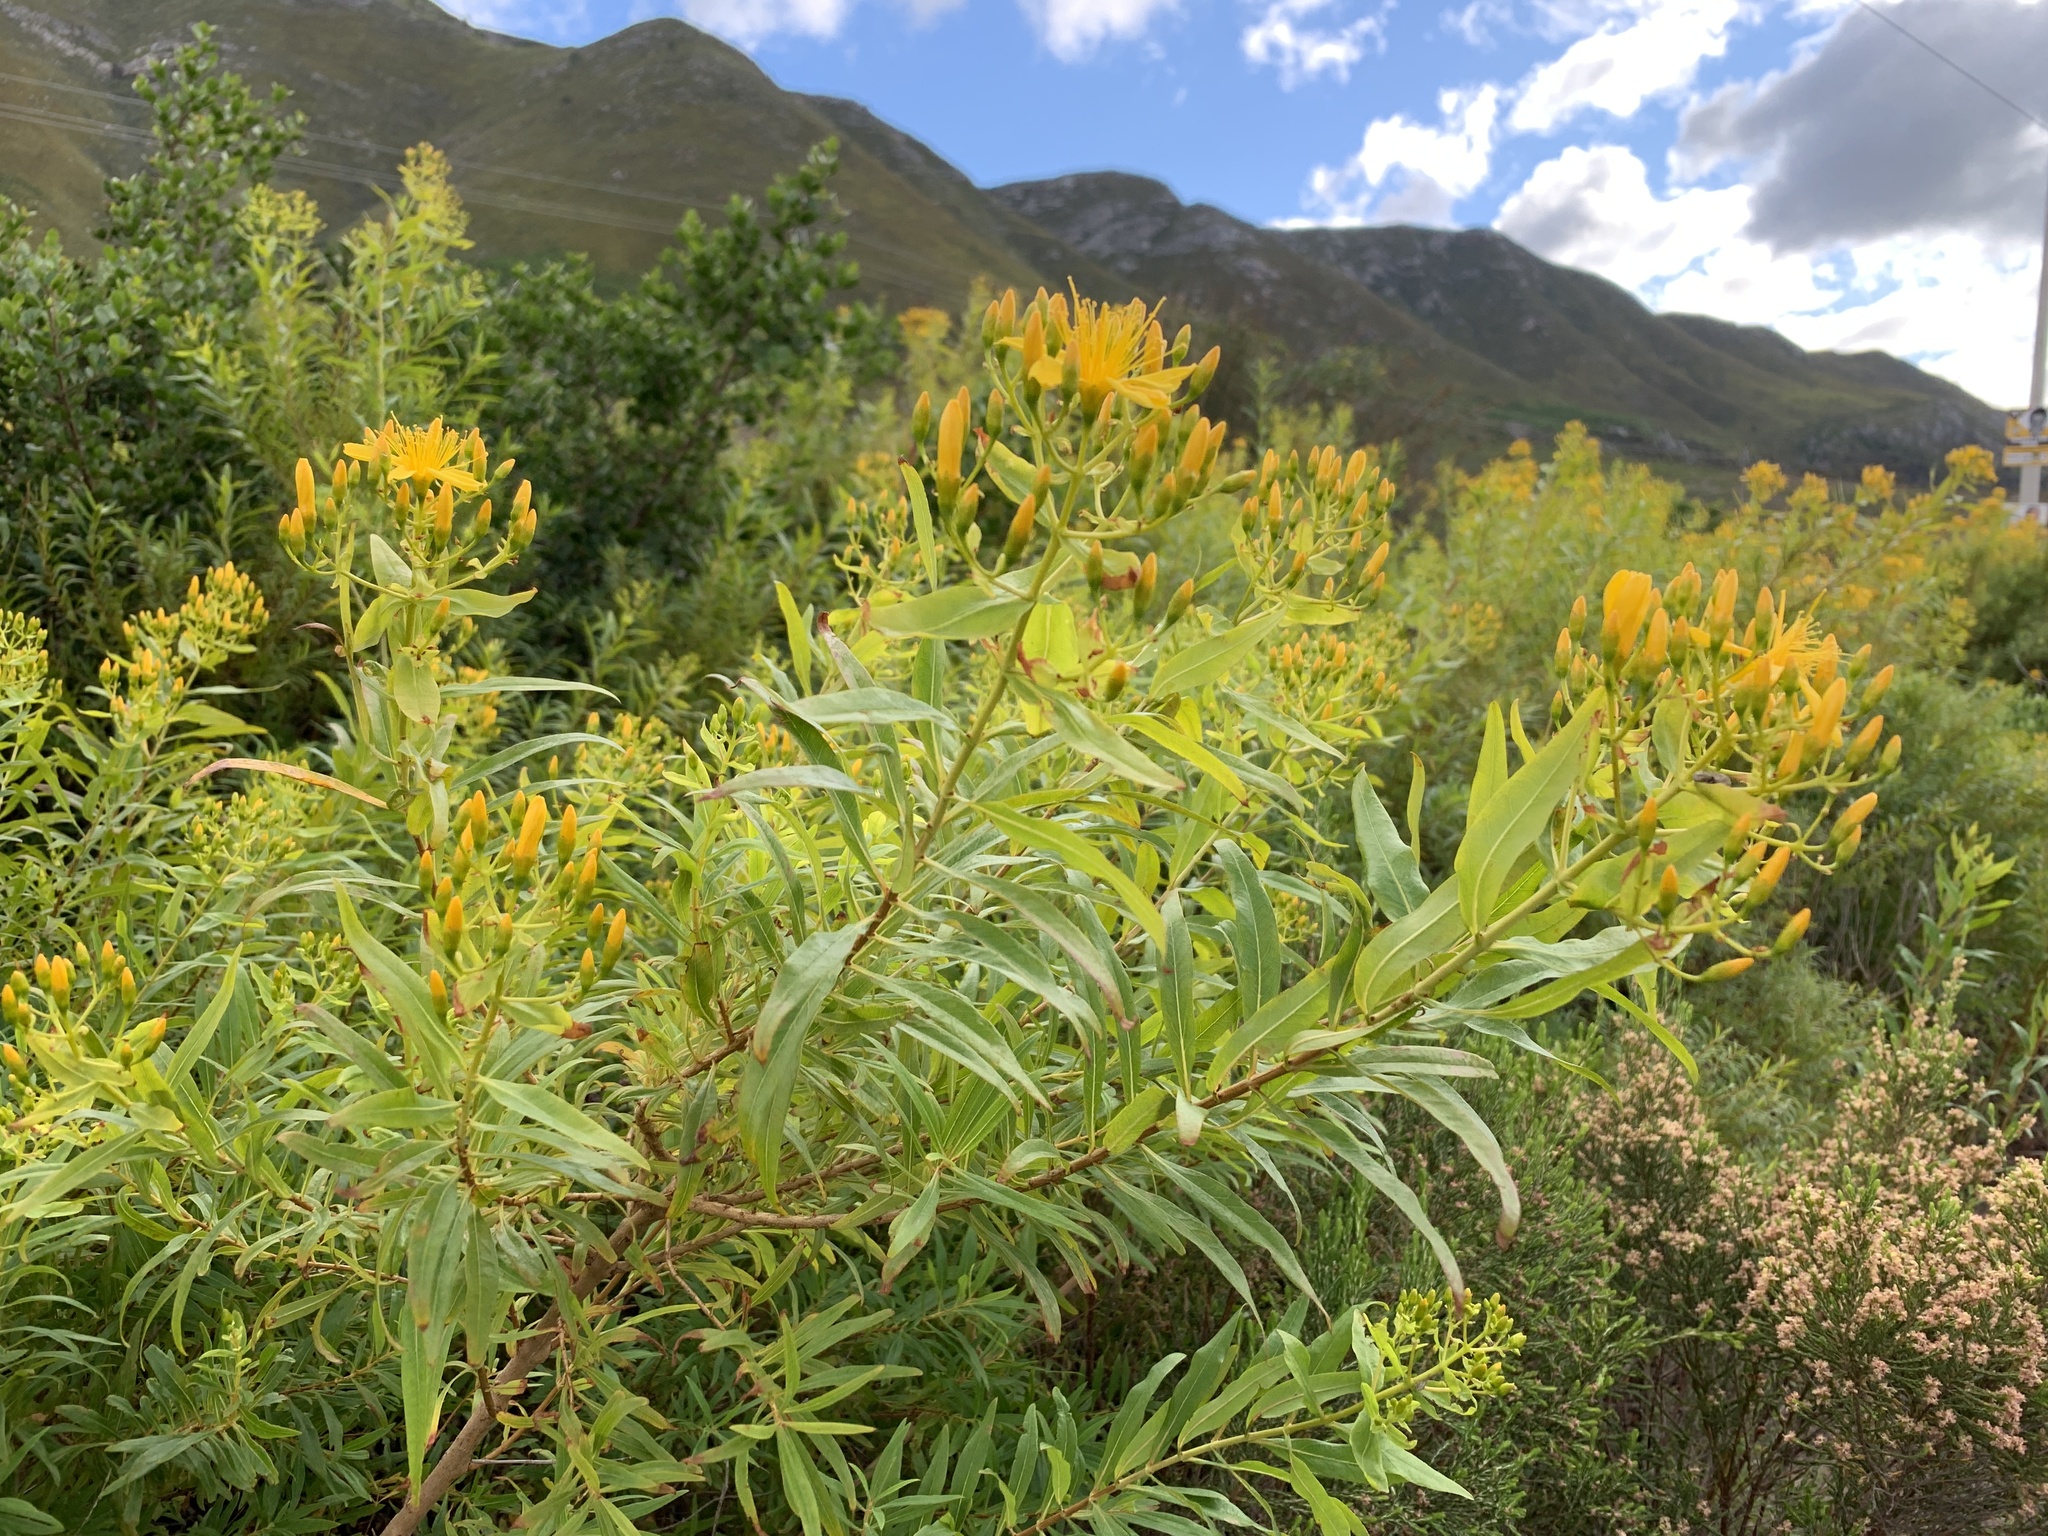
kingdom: Plantae
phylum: Tracheophyta
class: Magnoliopsida
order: Malpighiales
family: Hypericaceae
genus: Hypericum
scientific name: Hypericum canariense
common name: Canary island st. johnswort
